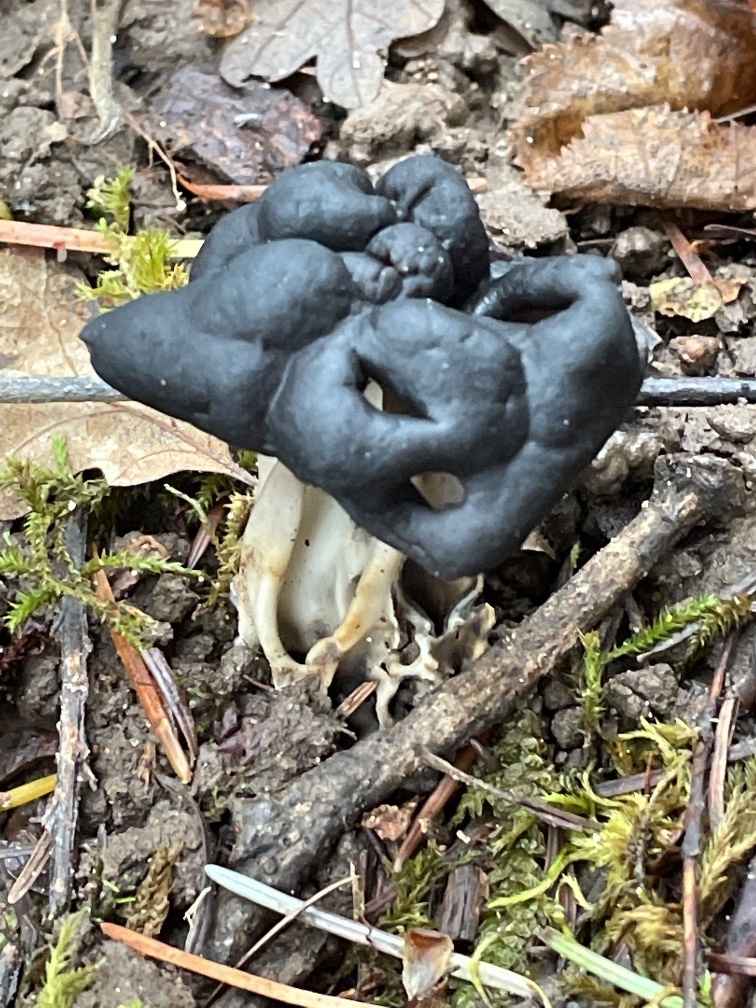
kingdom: Fungi
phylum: Ascomycota
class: Pezizomycetes
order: Pezizales
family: Helvellaceae
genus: Helvella
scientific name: Helvella vespertina
